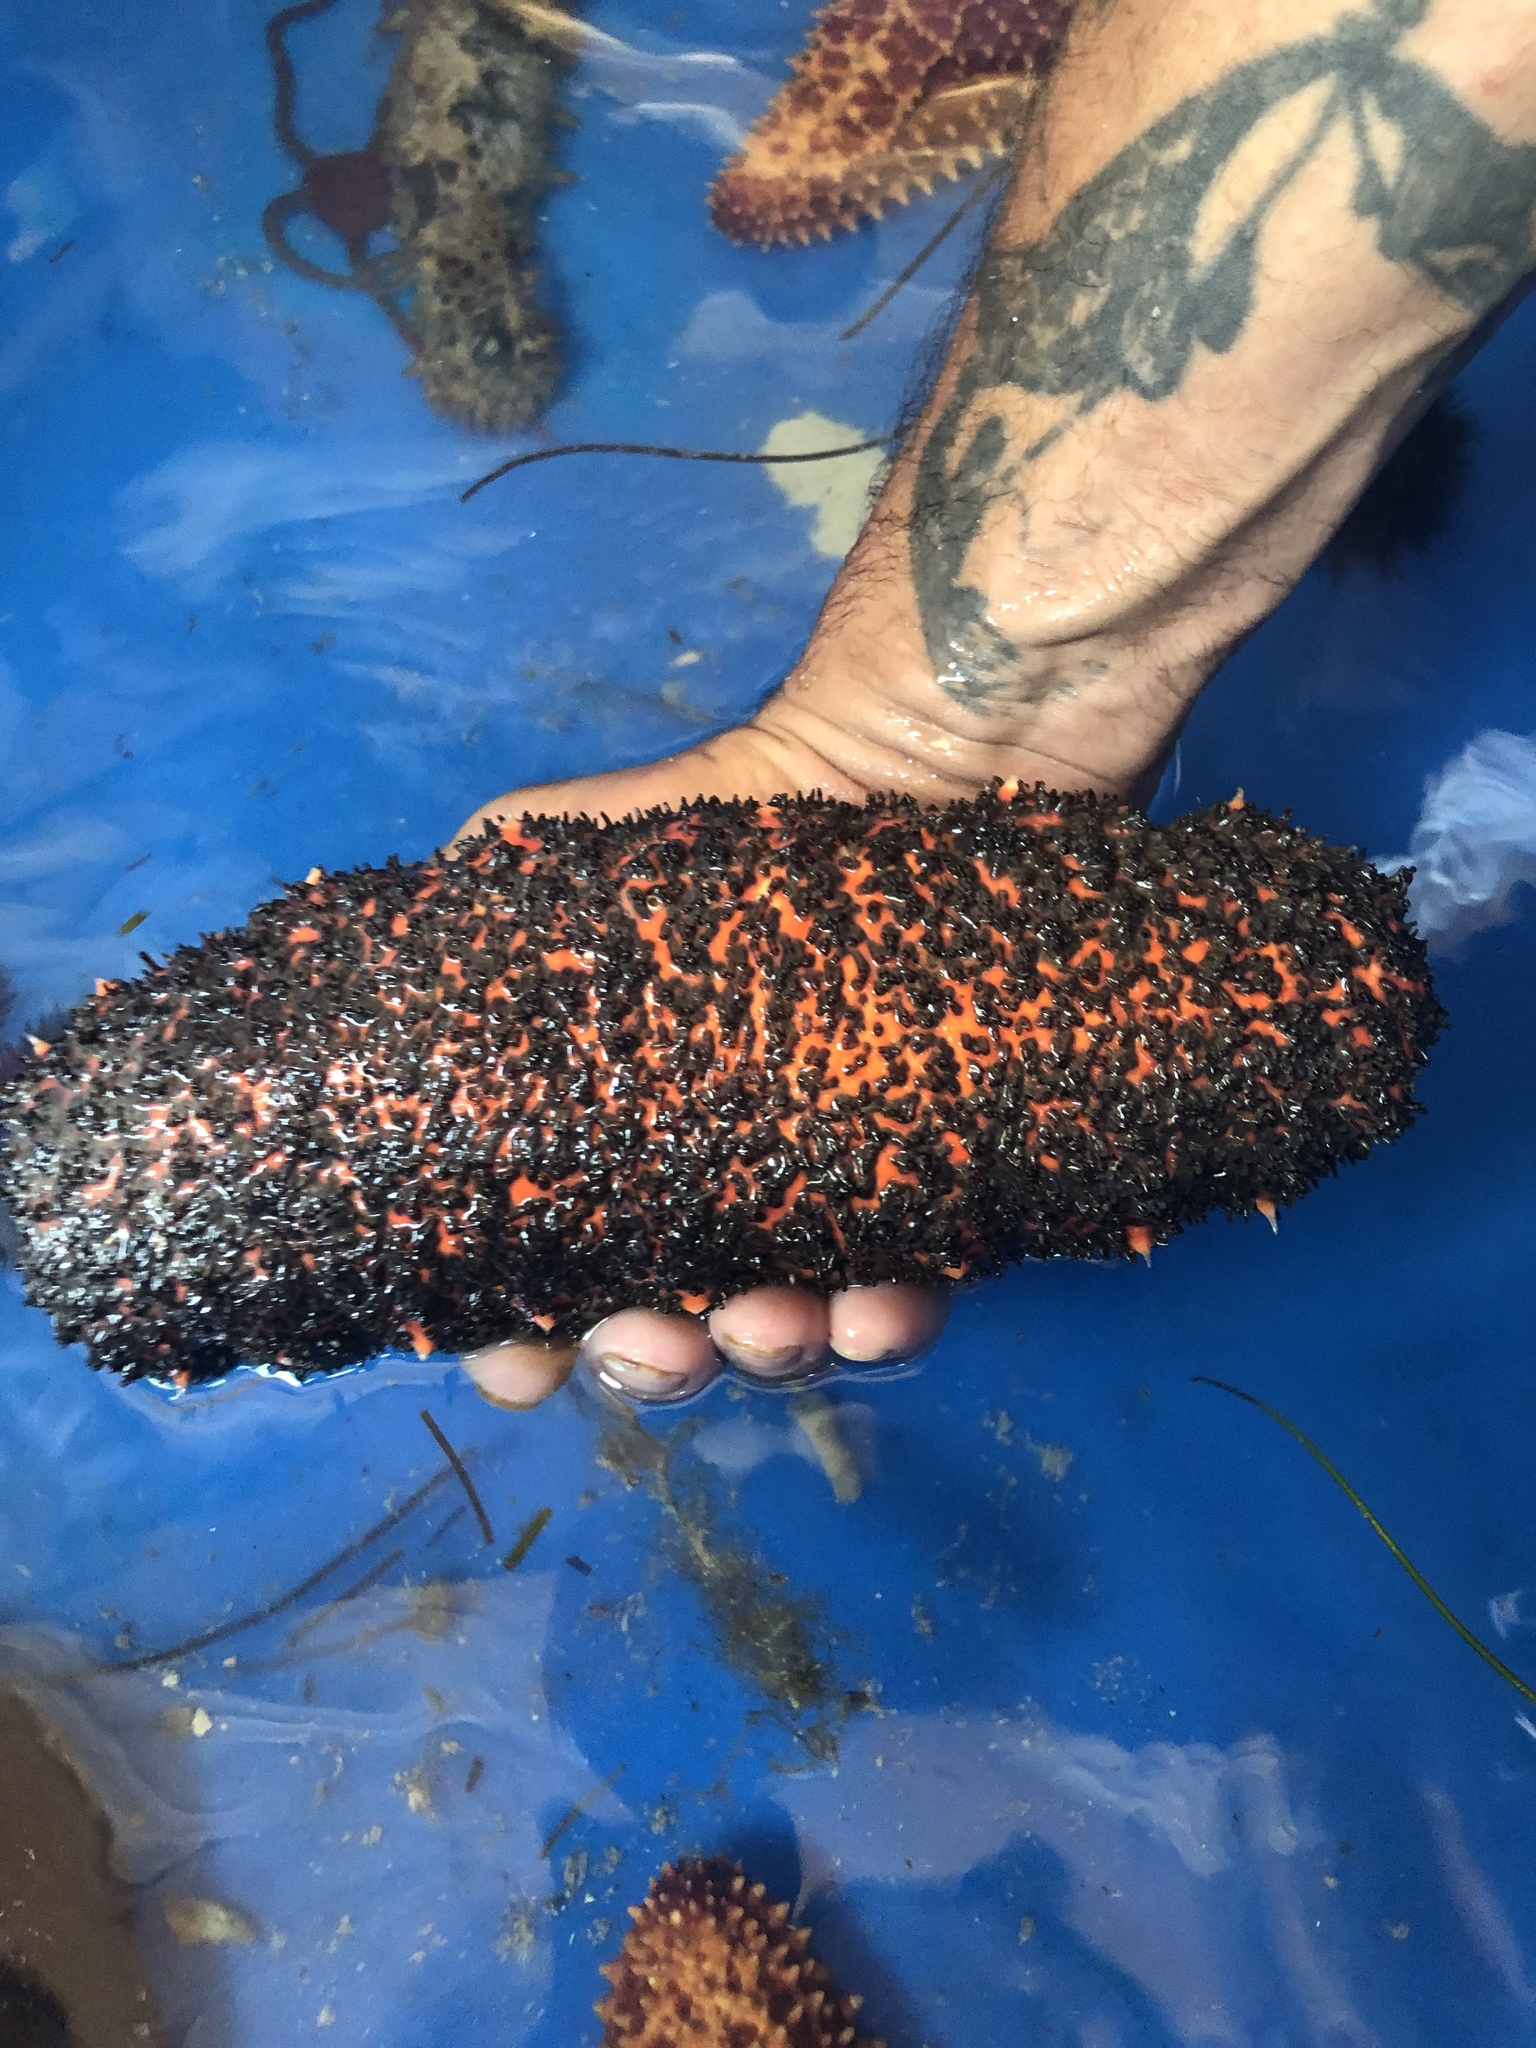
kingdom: Animalia
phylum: Echinodermata
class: Holothuroidea
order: Holothuriida
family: Holothuriidae
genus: Holothuria
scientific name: Holothuria mexicana
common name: Donkey dung sea cucumber
